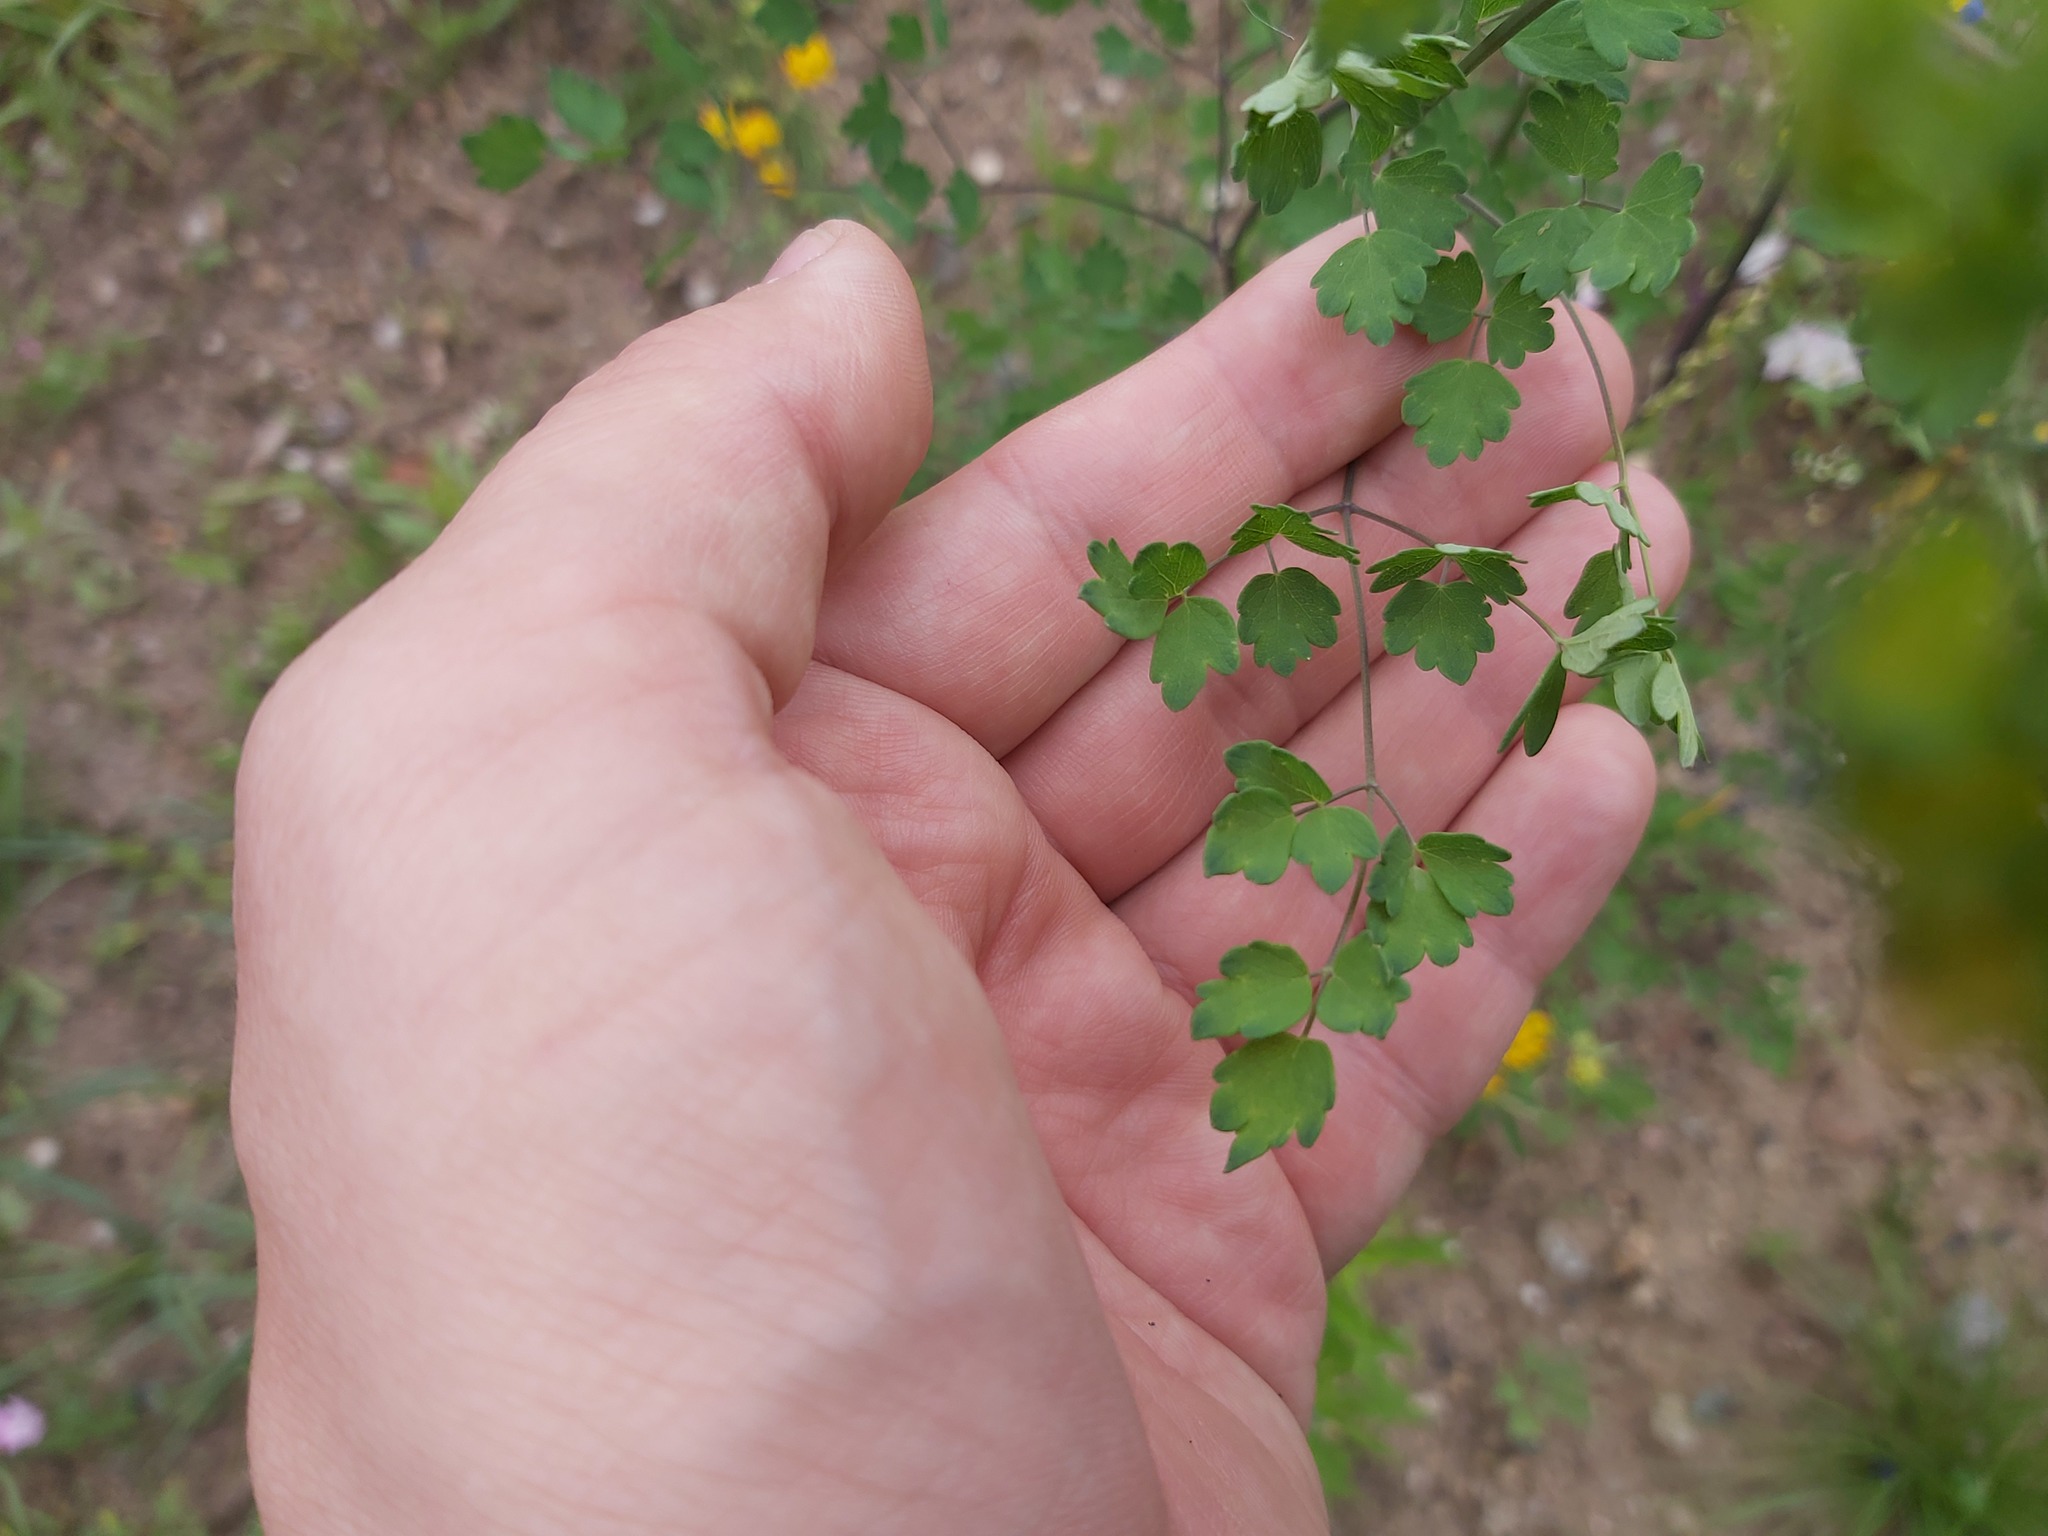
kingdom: Plantae
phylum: Tracheophyta
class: Magnoliopsida
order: Ranunculales
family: Ranunculaceae
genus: Thalictrum
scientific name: Thalictrum minus
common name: Lesser meadow-rue
